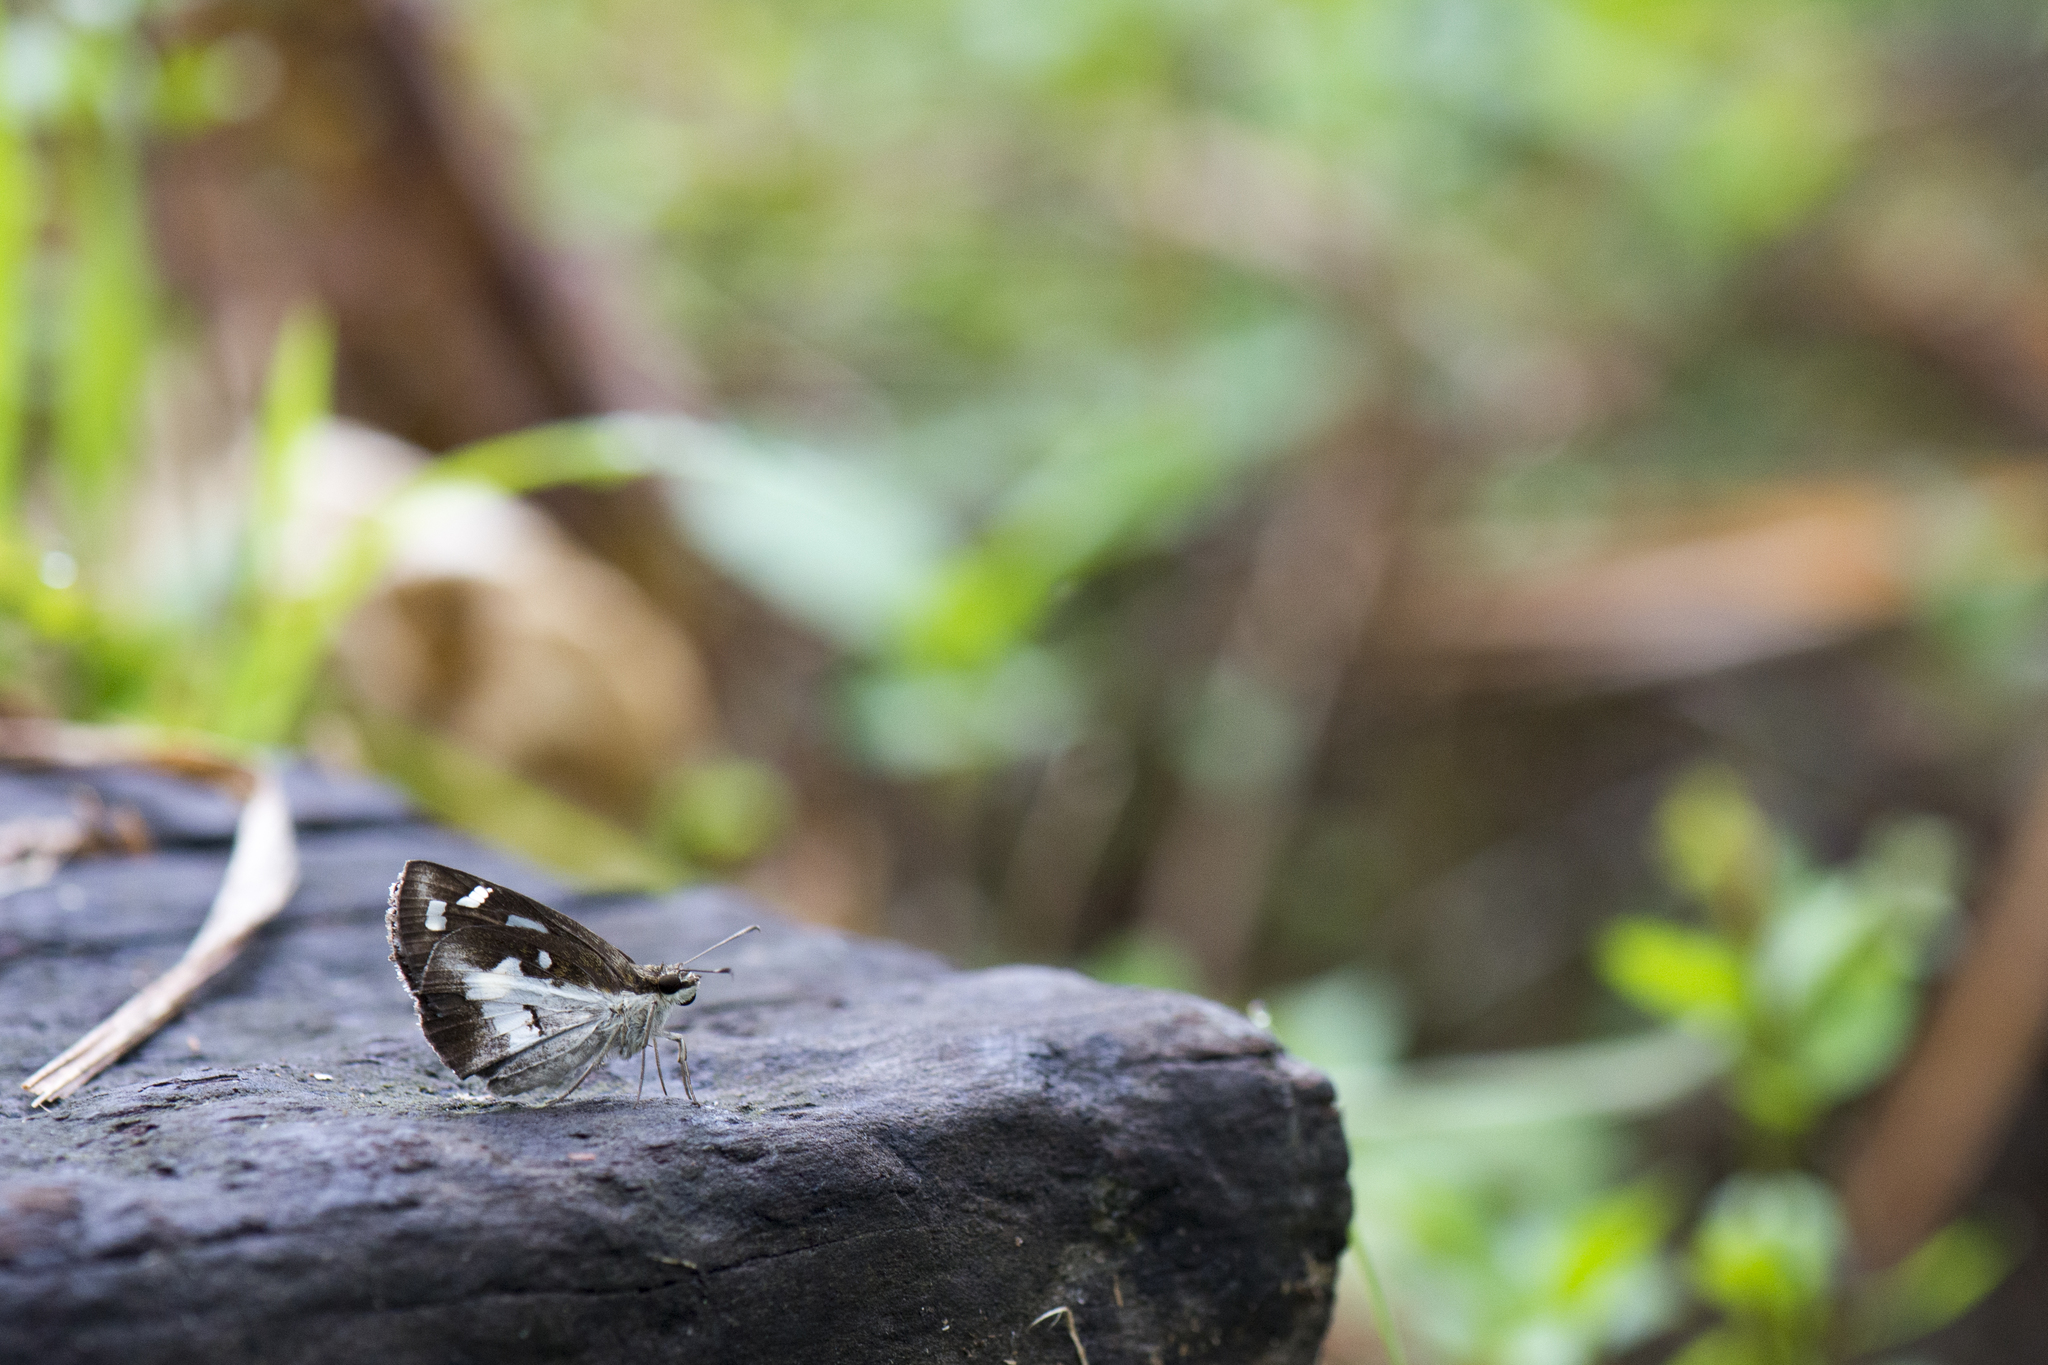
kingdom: Animalia
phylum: Arthropoda
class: Insecta
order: Lepidoptera
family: Hesperiidae
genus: Udaspes
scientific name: Udaspes folus
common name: Grass demon
